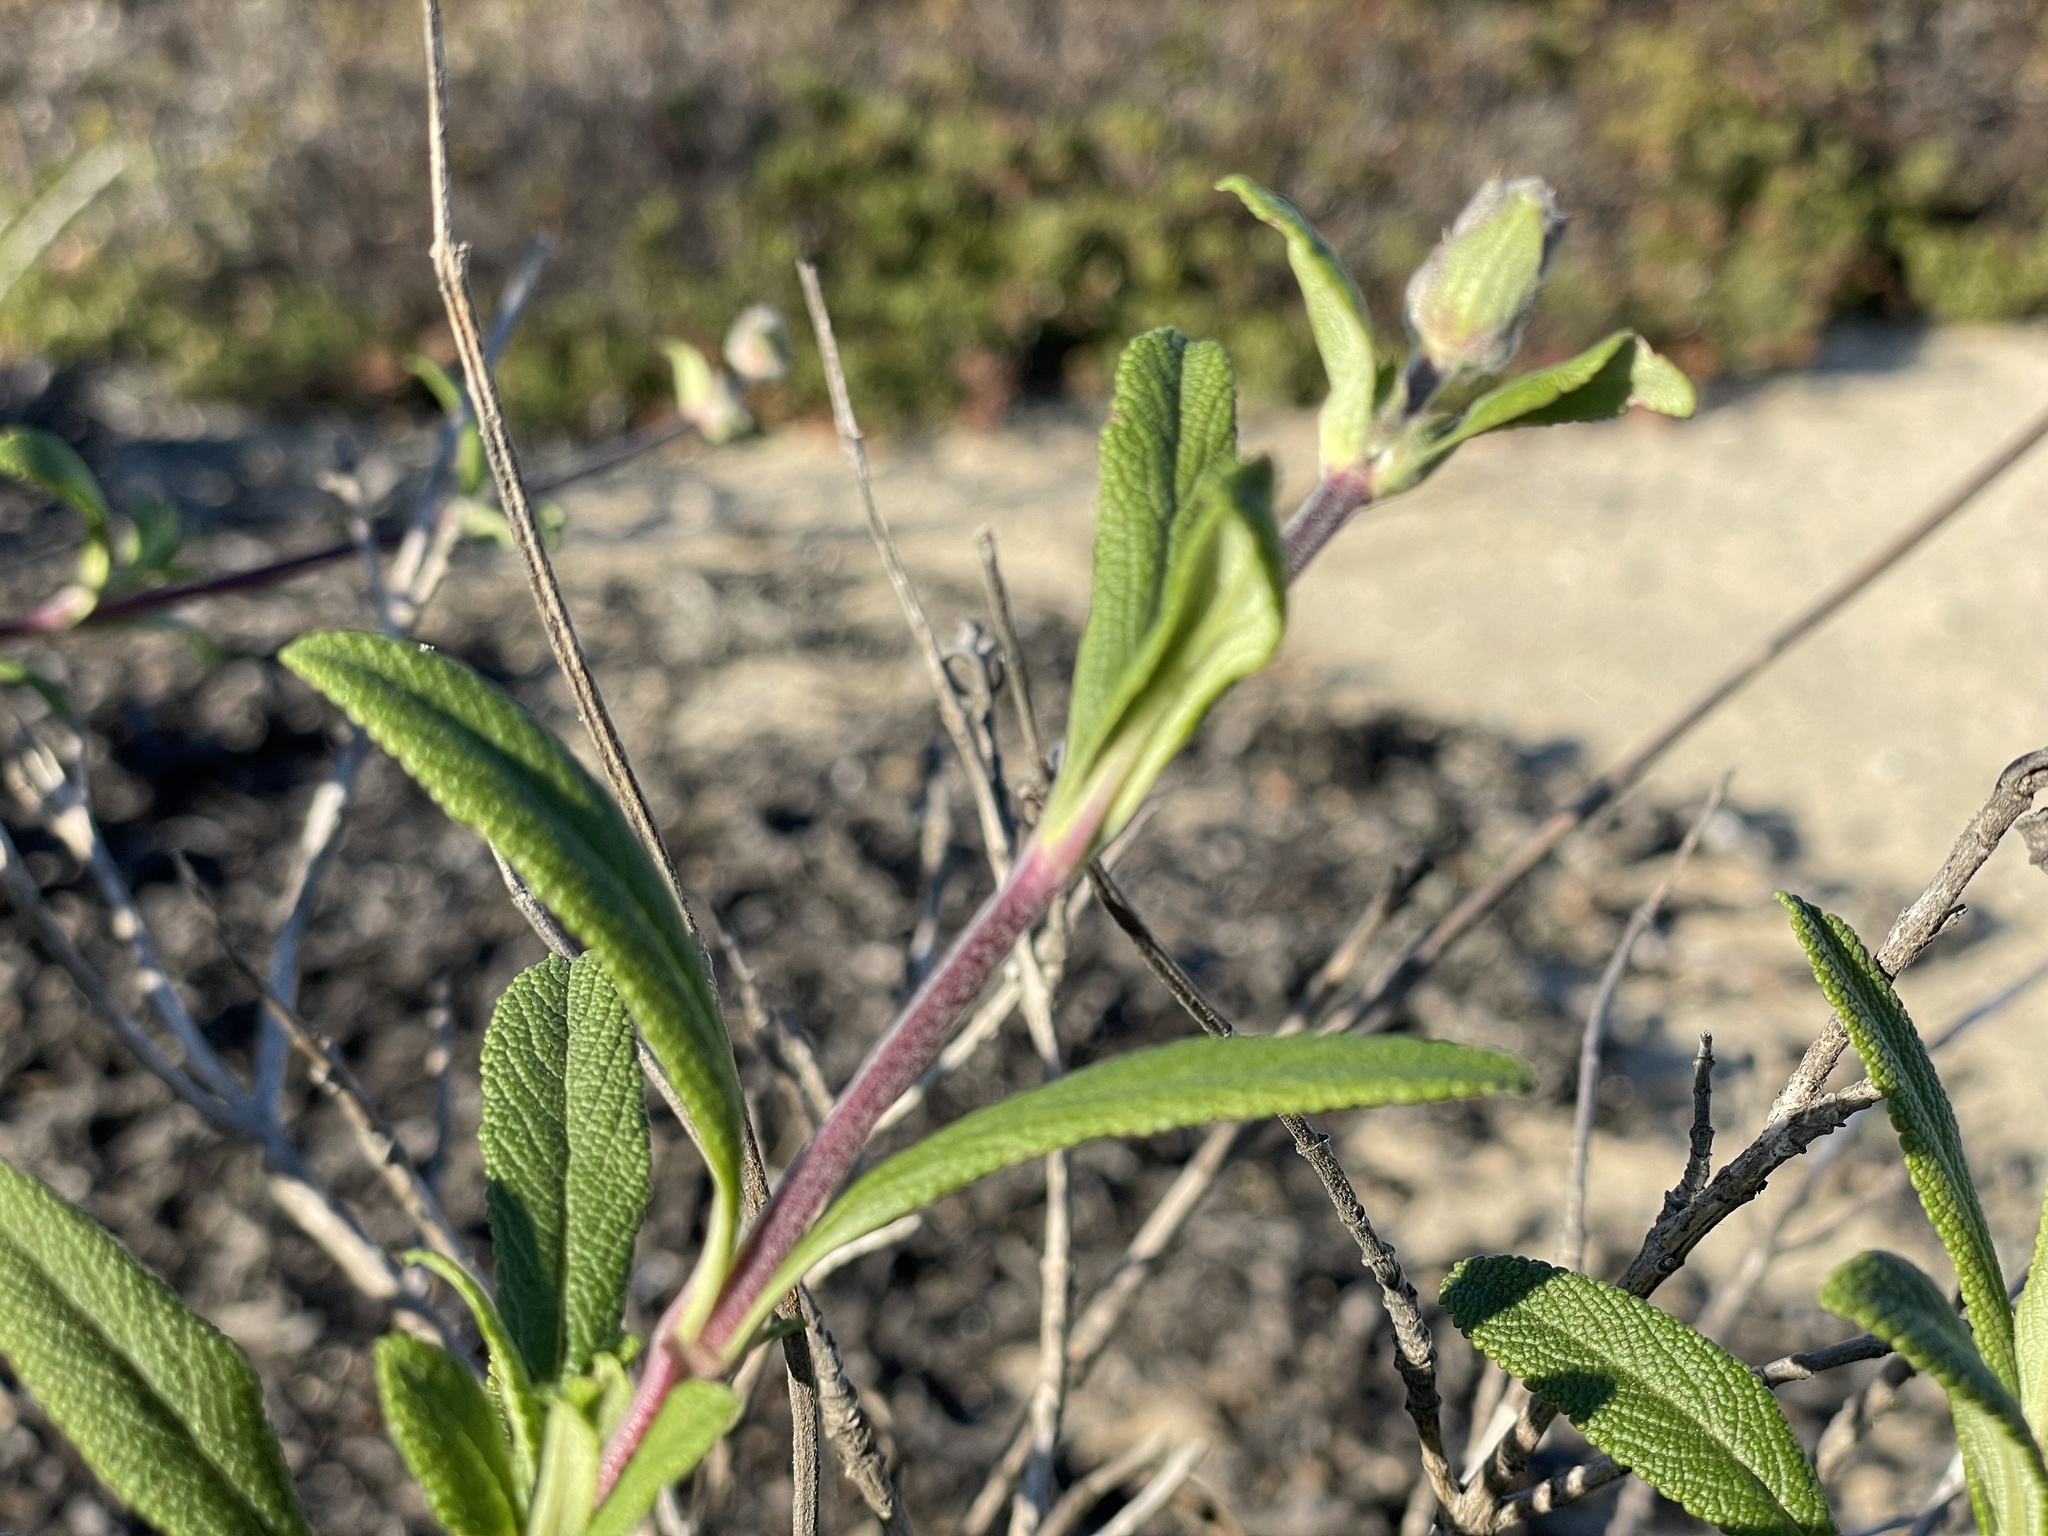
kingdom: Plantae
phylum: Tracheophyta
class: Magnoliopsida
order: Lamiales
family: Lamiaceae
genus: Salvia
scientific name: Salvia mellifera
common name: Black sage
